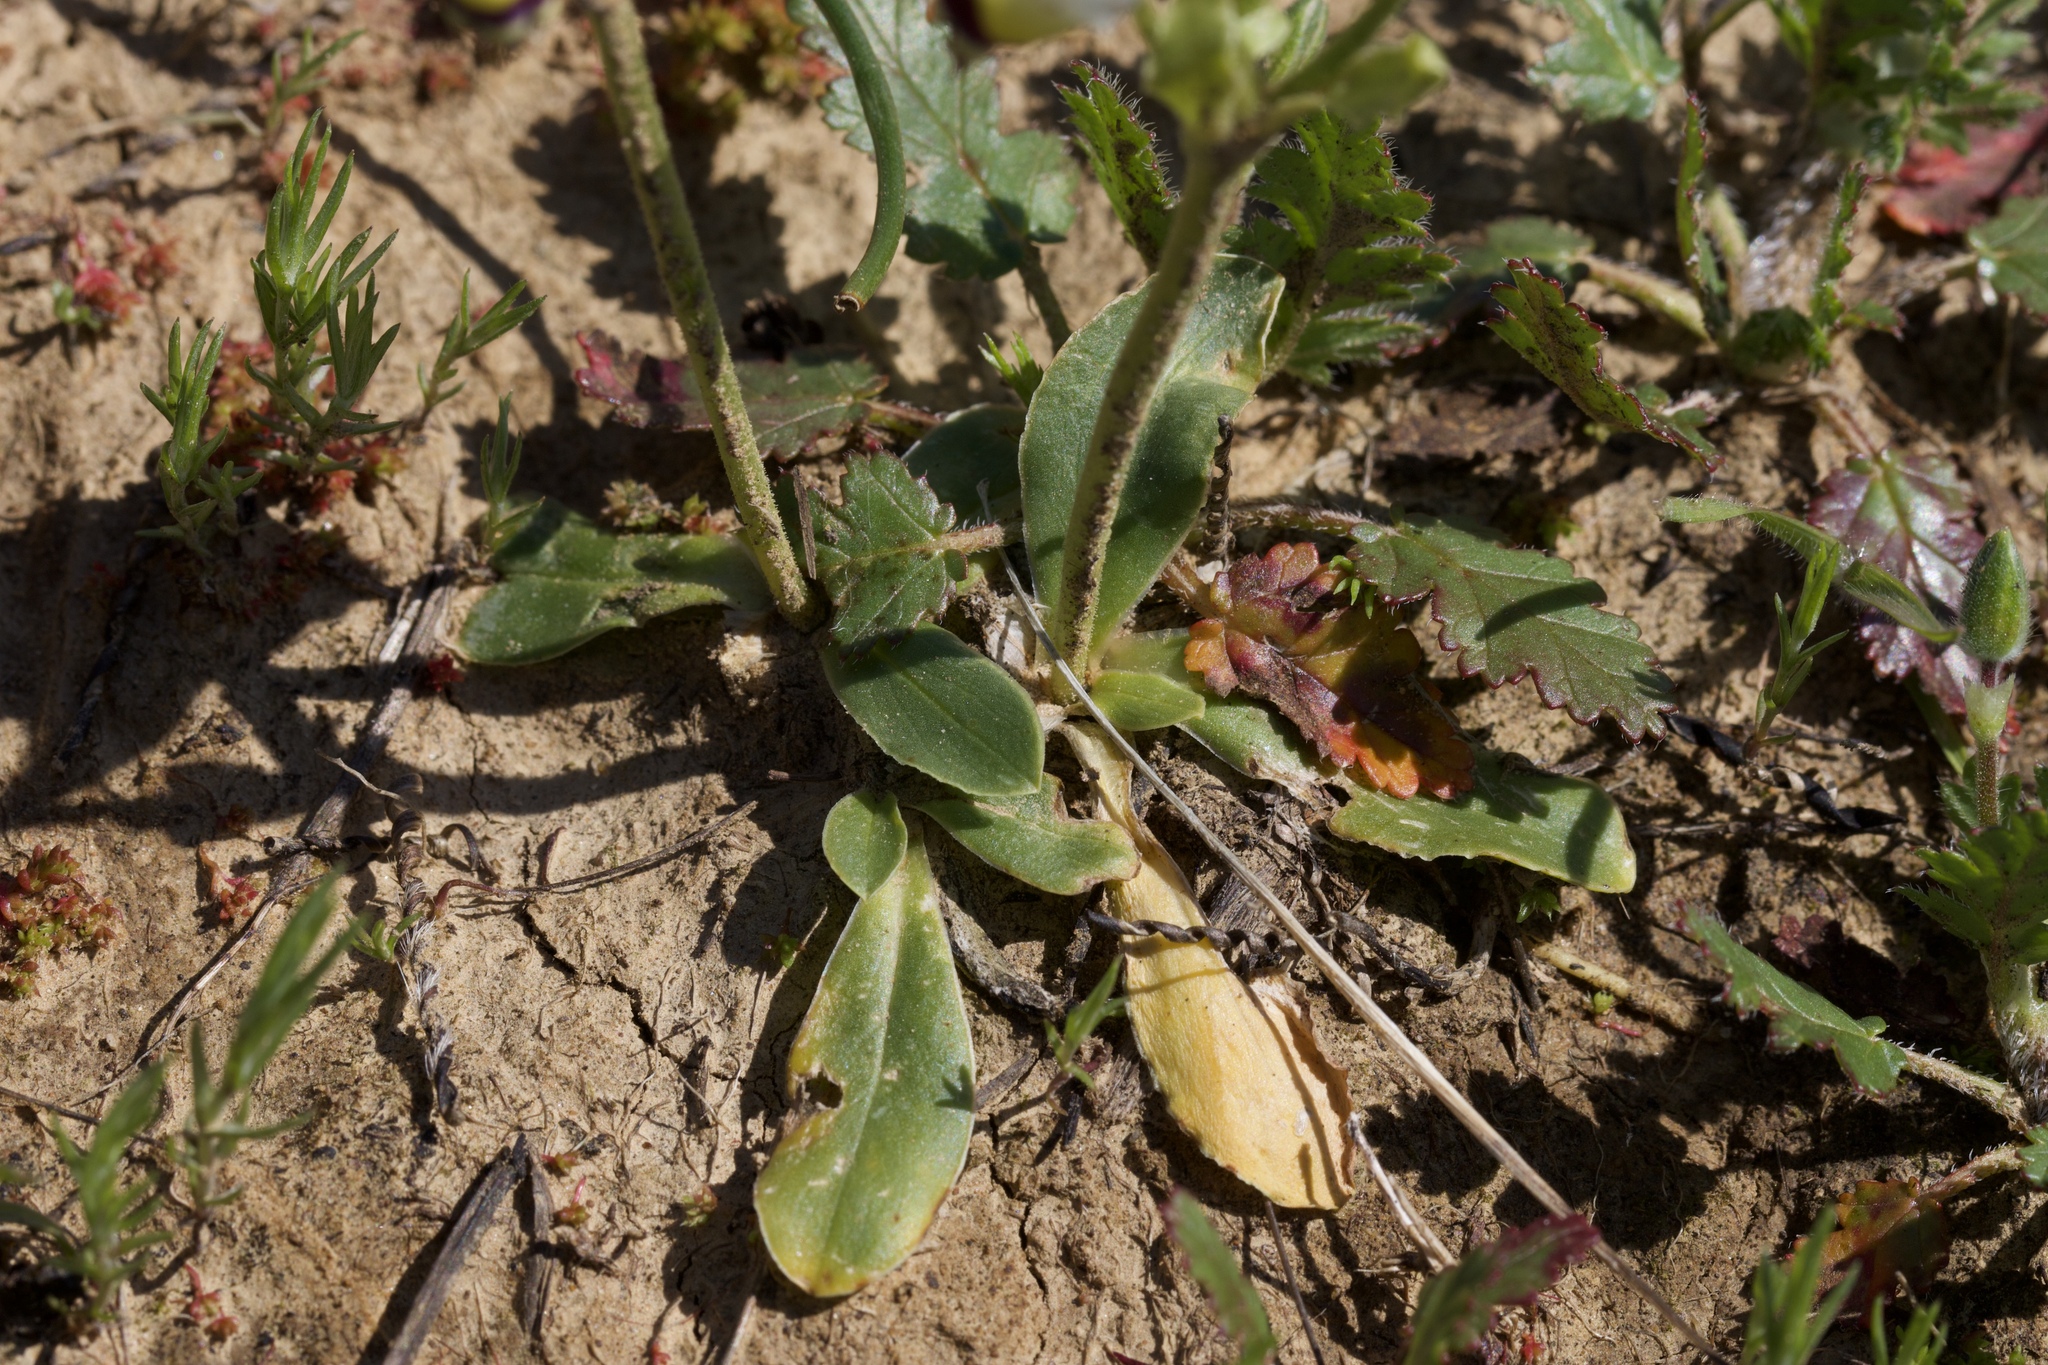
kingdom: Plantae
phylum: Tracheophyta
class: Magnoliopsida
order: Ericales
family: Primulaceae
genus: Dodecatheon
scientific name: Dodecatheon clevelandii
